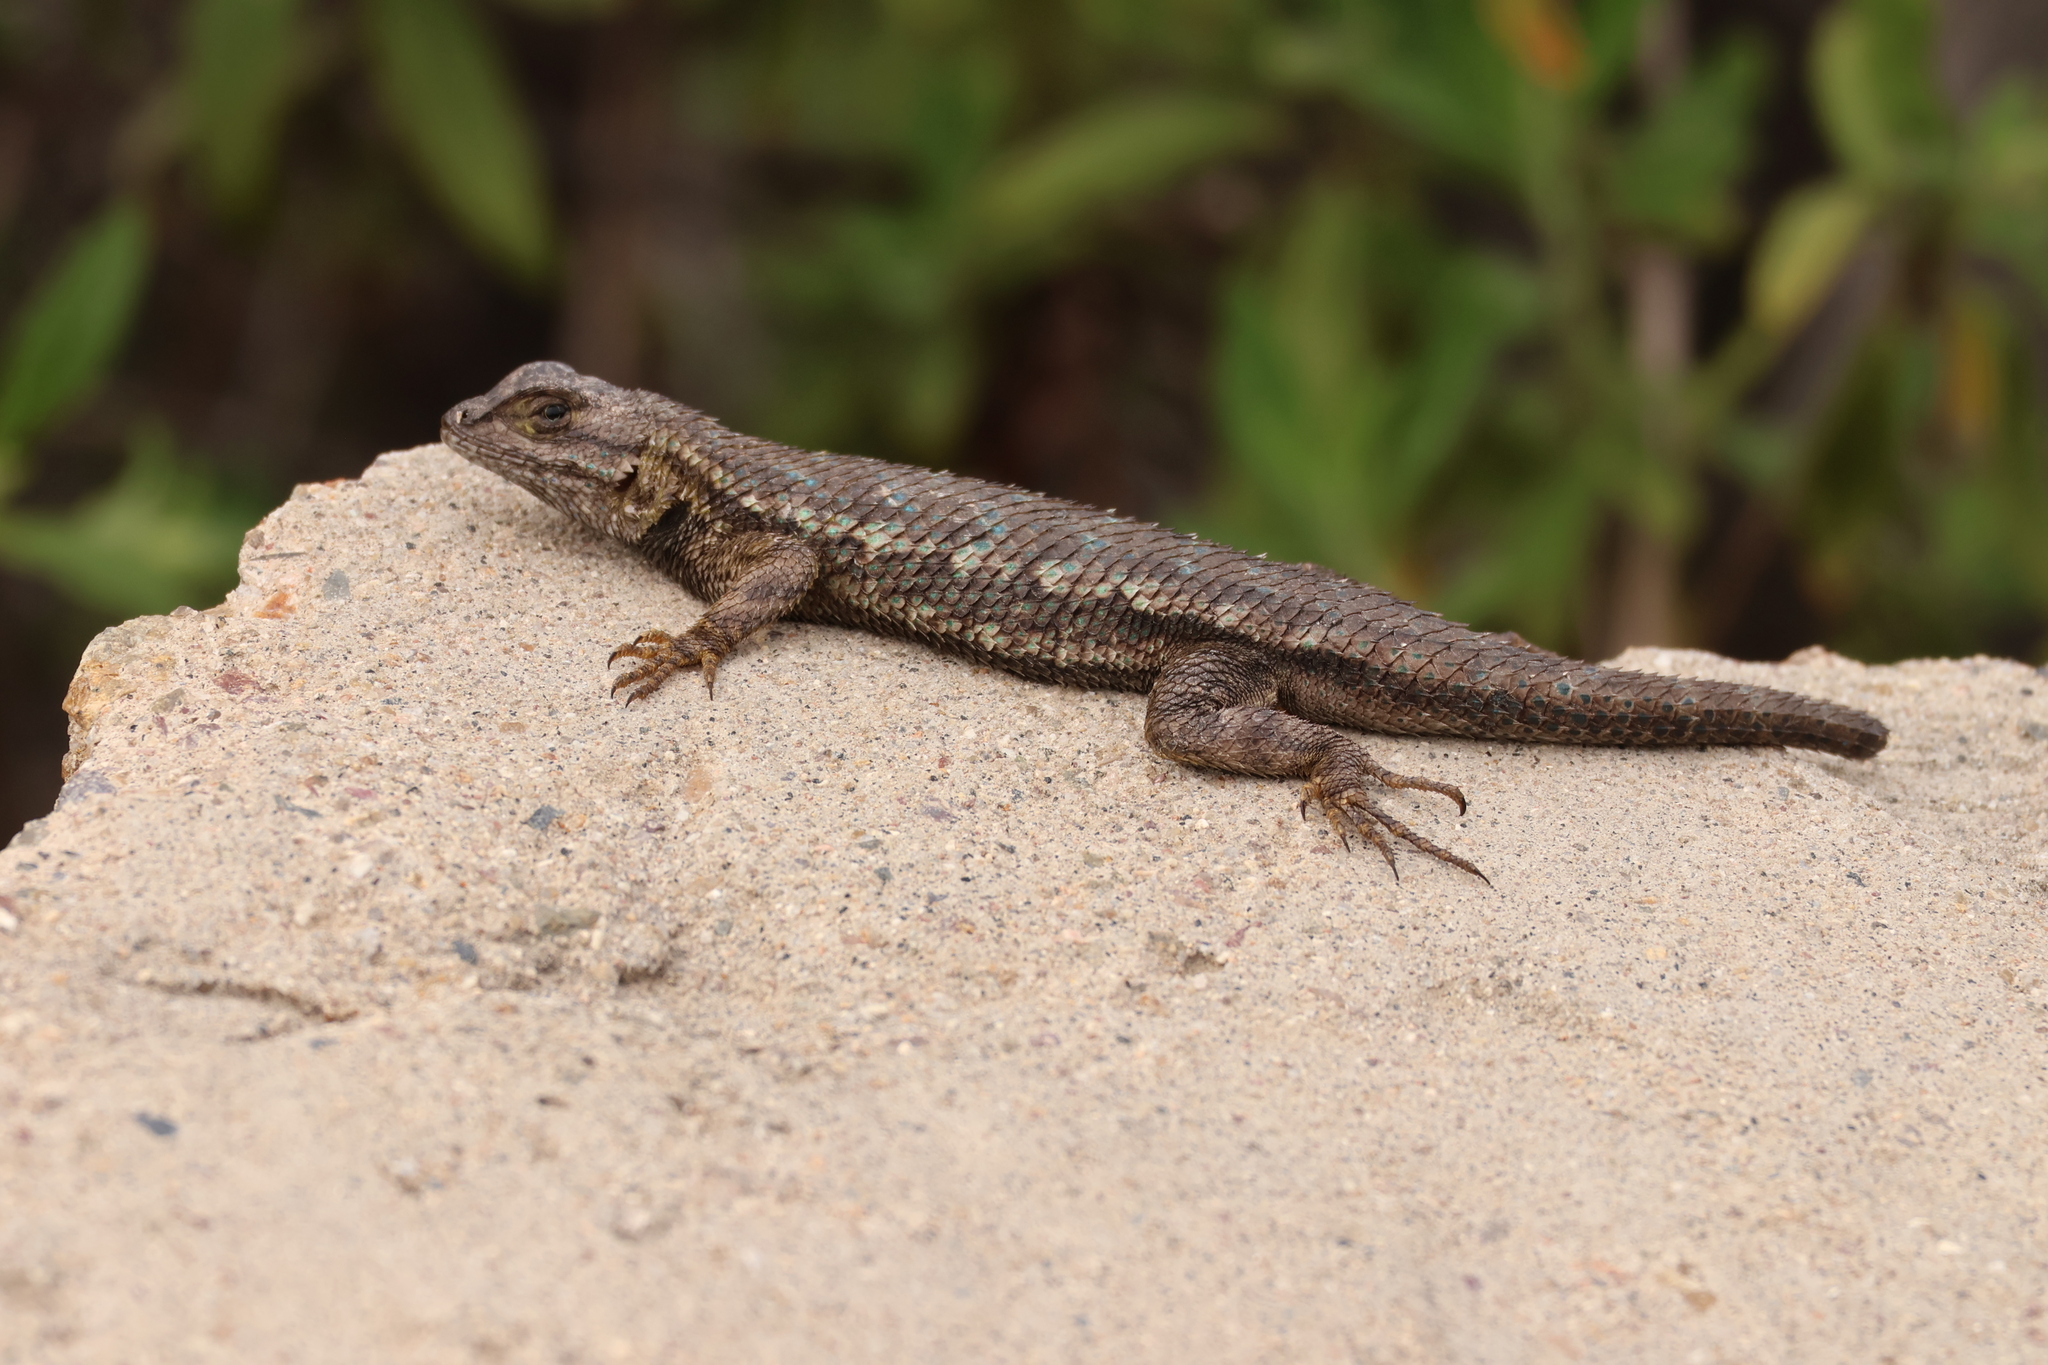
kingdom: Animalia
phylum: Chordata
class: Squamata
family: Phrynosomatidae
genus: Sceloporus
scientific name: Sceloporus occidentalis
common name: Western fence lizard
